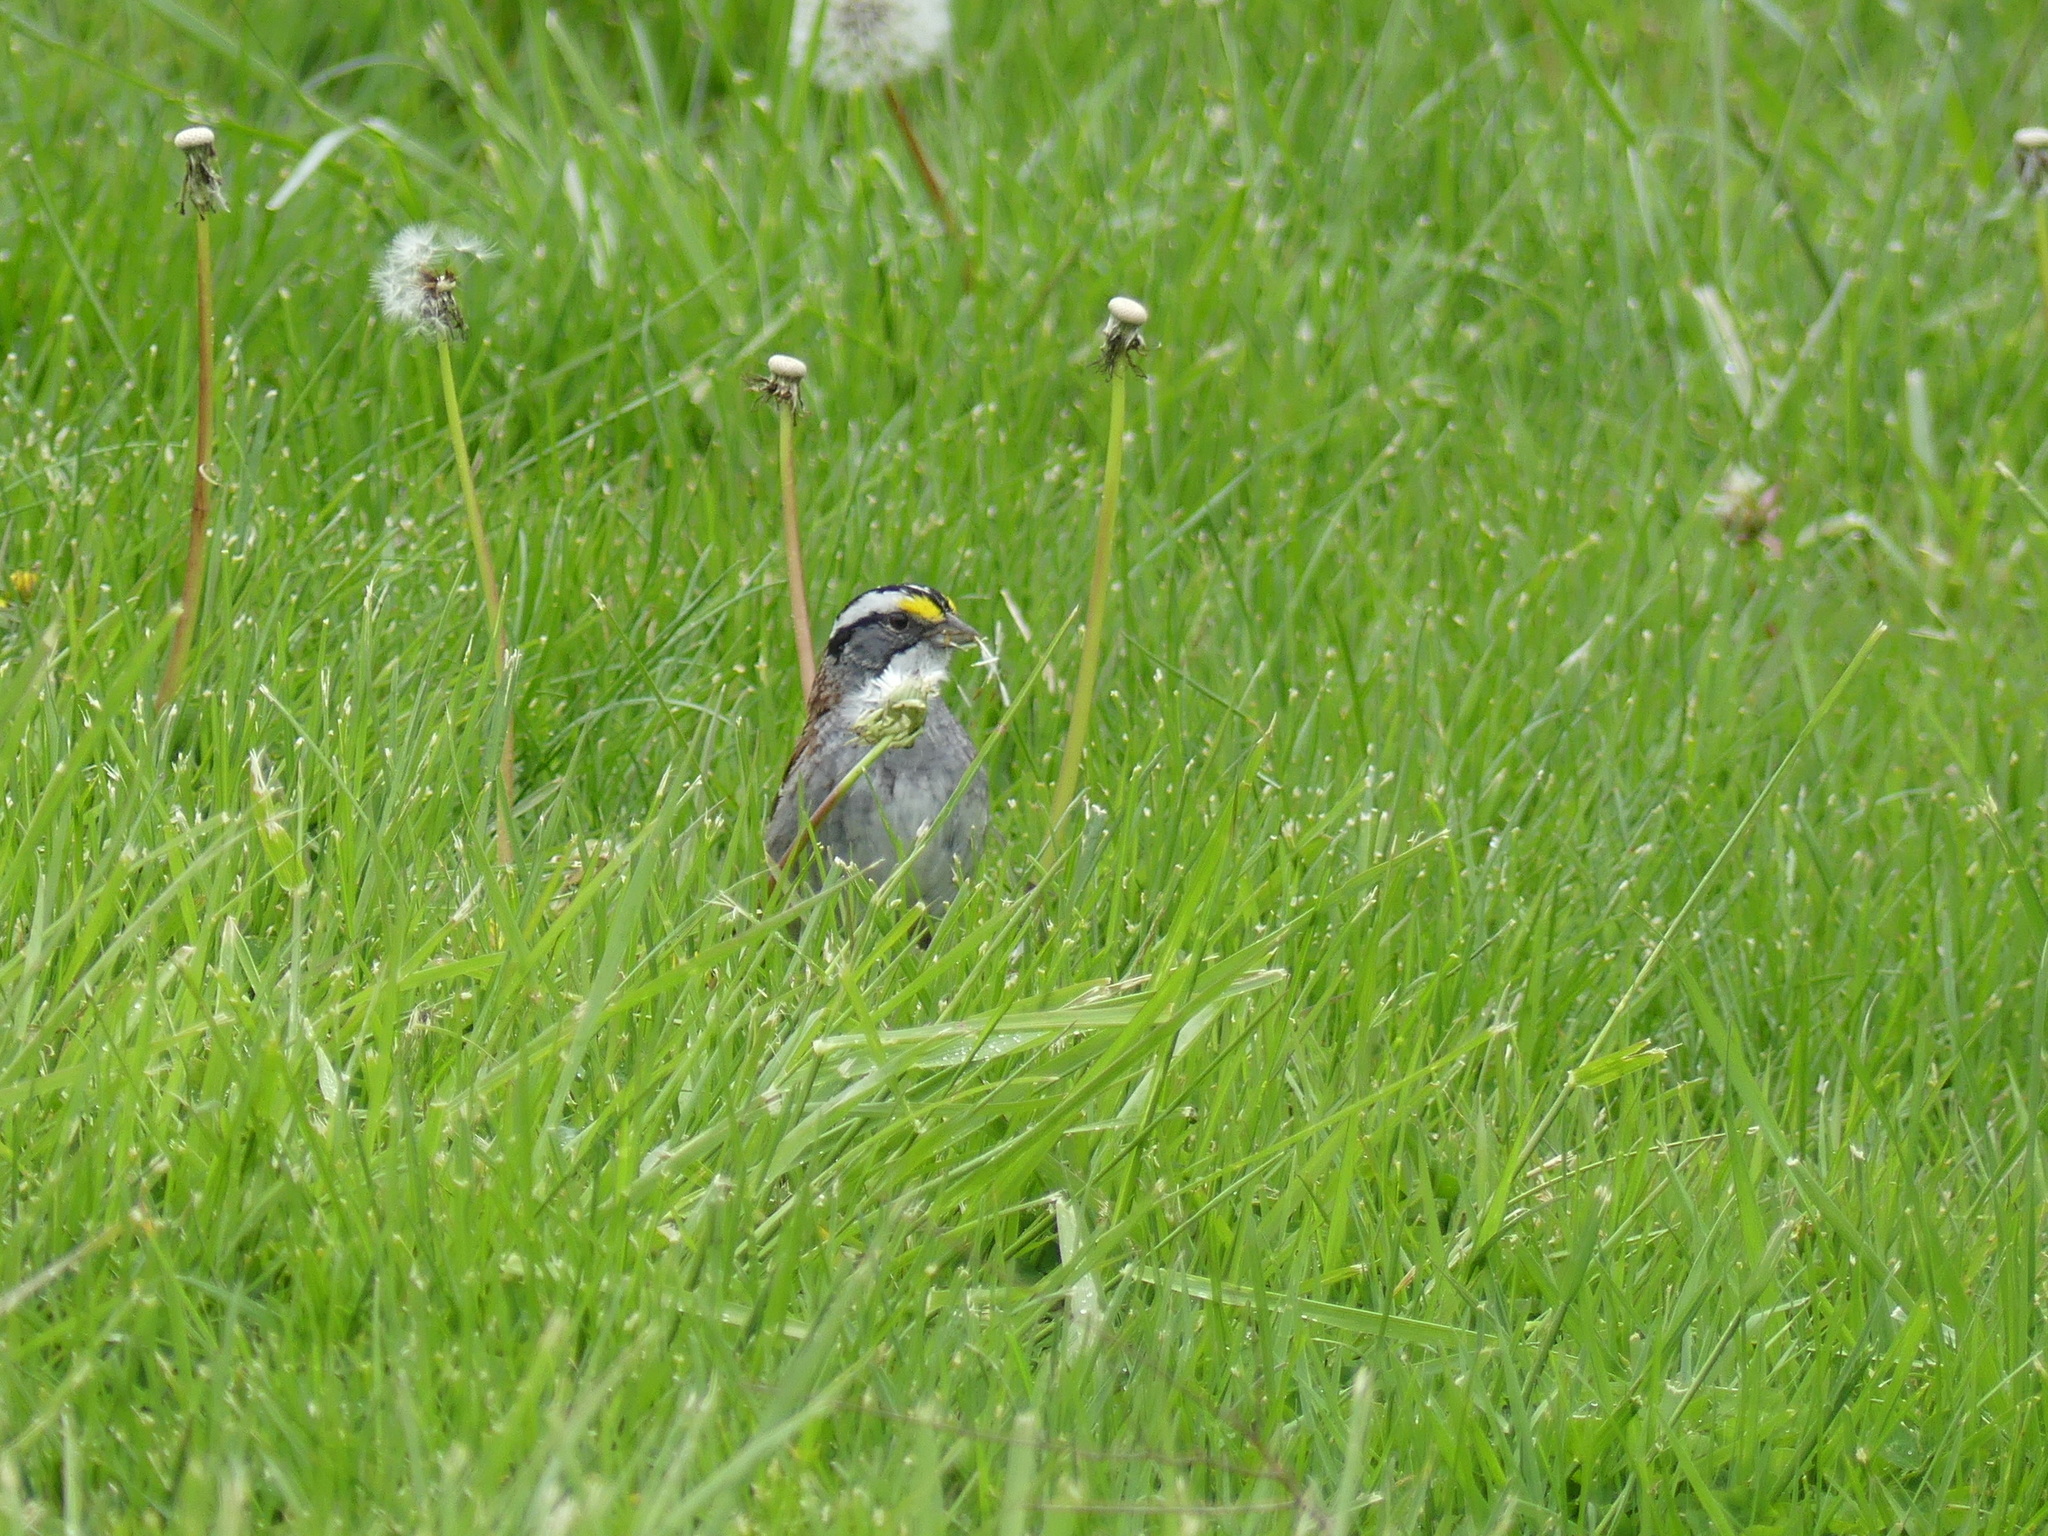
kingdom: Animalia
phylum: Chordata
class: Aves
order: Passeriformes
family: Passerellidae
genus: Zonotrichia
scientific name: Zonotrichia albicollis
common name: White-throated sparrow
